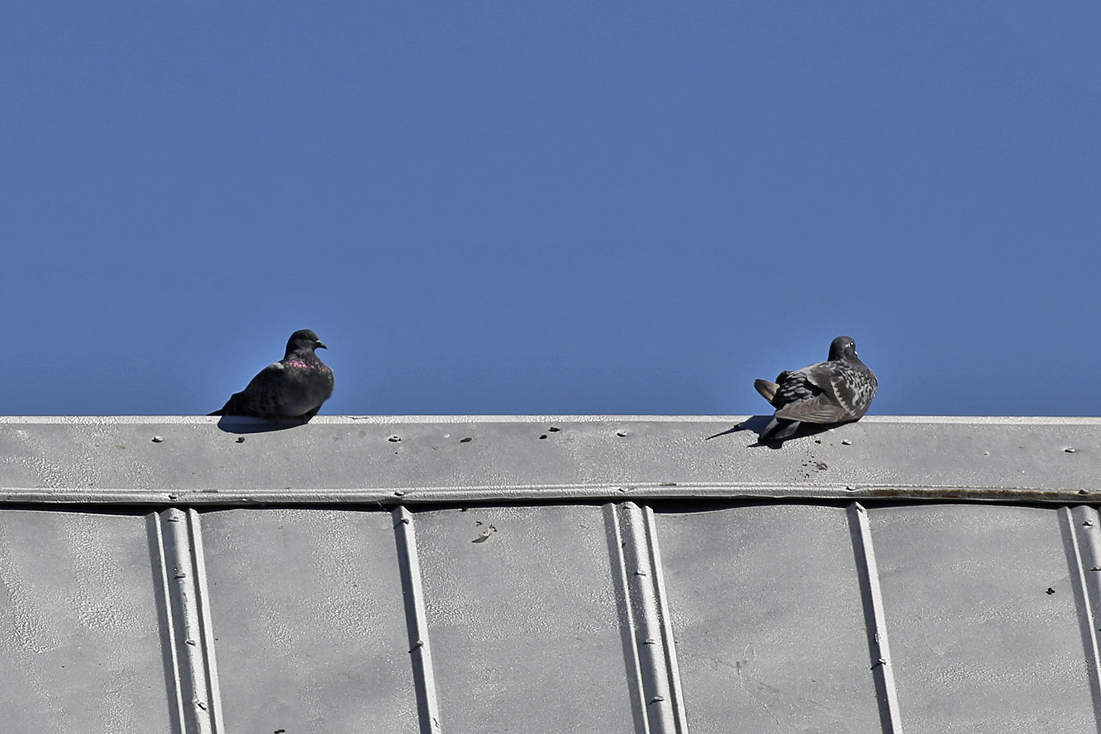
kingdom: Animalia
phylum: Chordata
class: Aves
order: Columbiformes
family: Columbidae
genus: Columba
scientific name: Columba livia
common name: Rock pigeon
